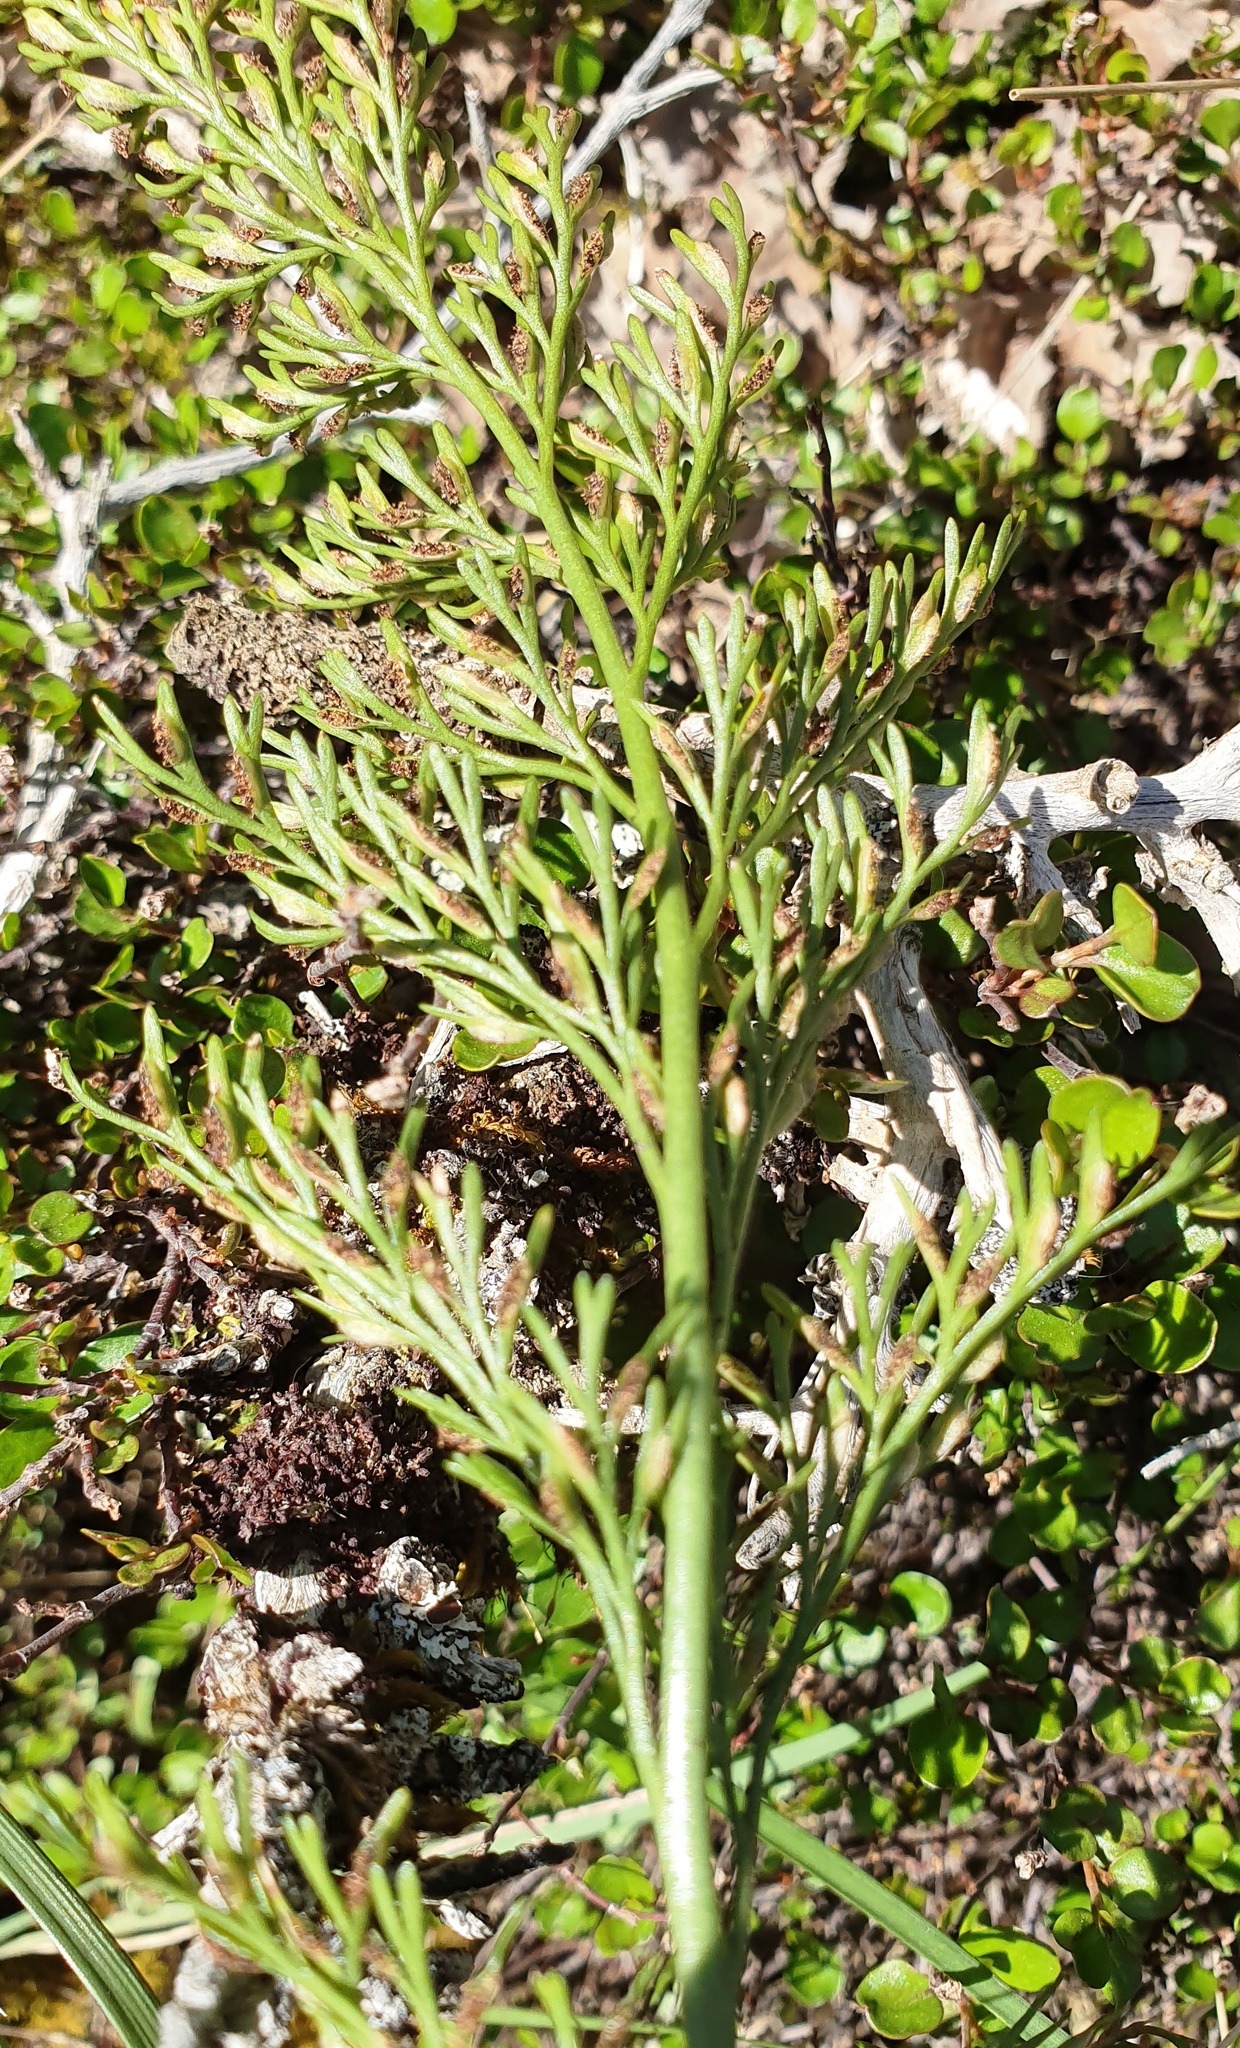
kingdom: Plantae
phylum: Tracheophyta
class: Polypodiopsida
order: Polypodiales
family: Aspleniaceae
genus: Asplenium
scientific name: Asplenium richardii
